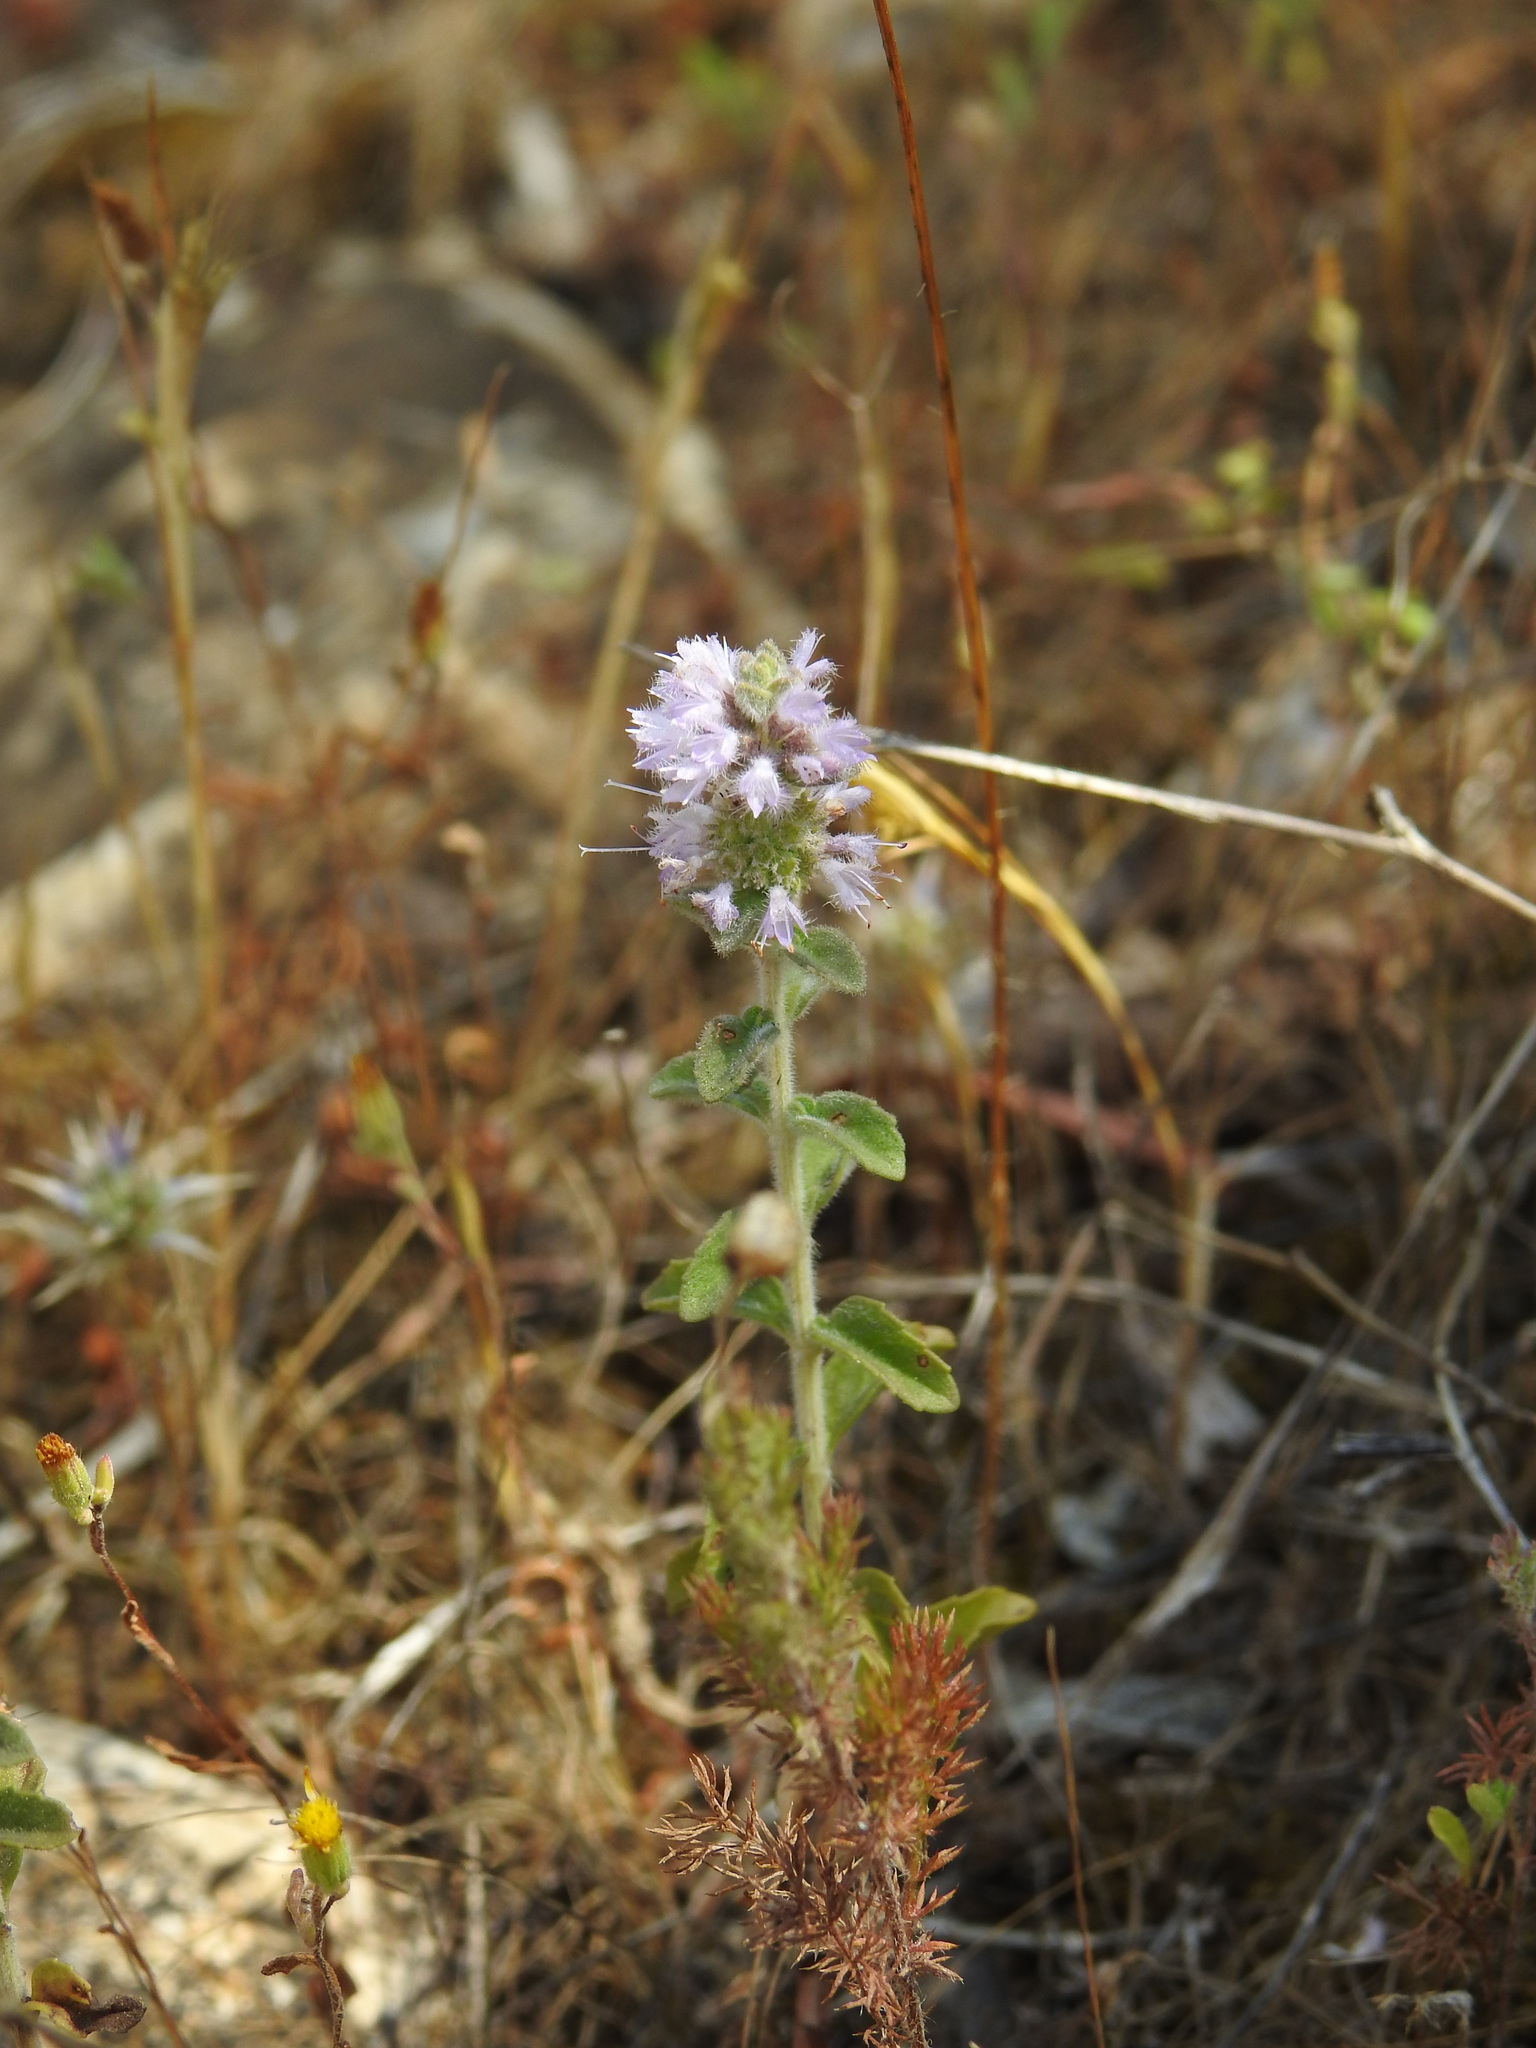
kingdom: Plantae
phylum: Tracheophyta
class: Magnoliopsida
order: Lamiales
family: Lamiaceae
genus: Mentha
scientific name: Mentha pulegium
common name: Pennyroyal
